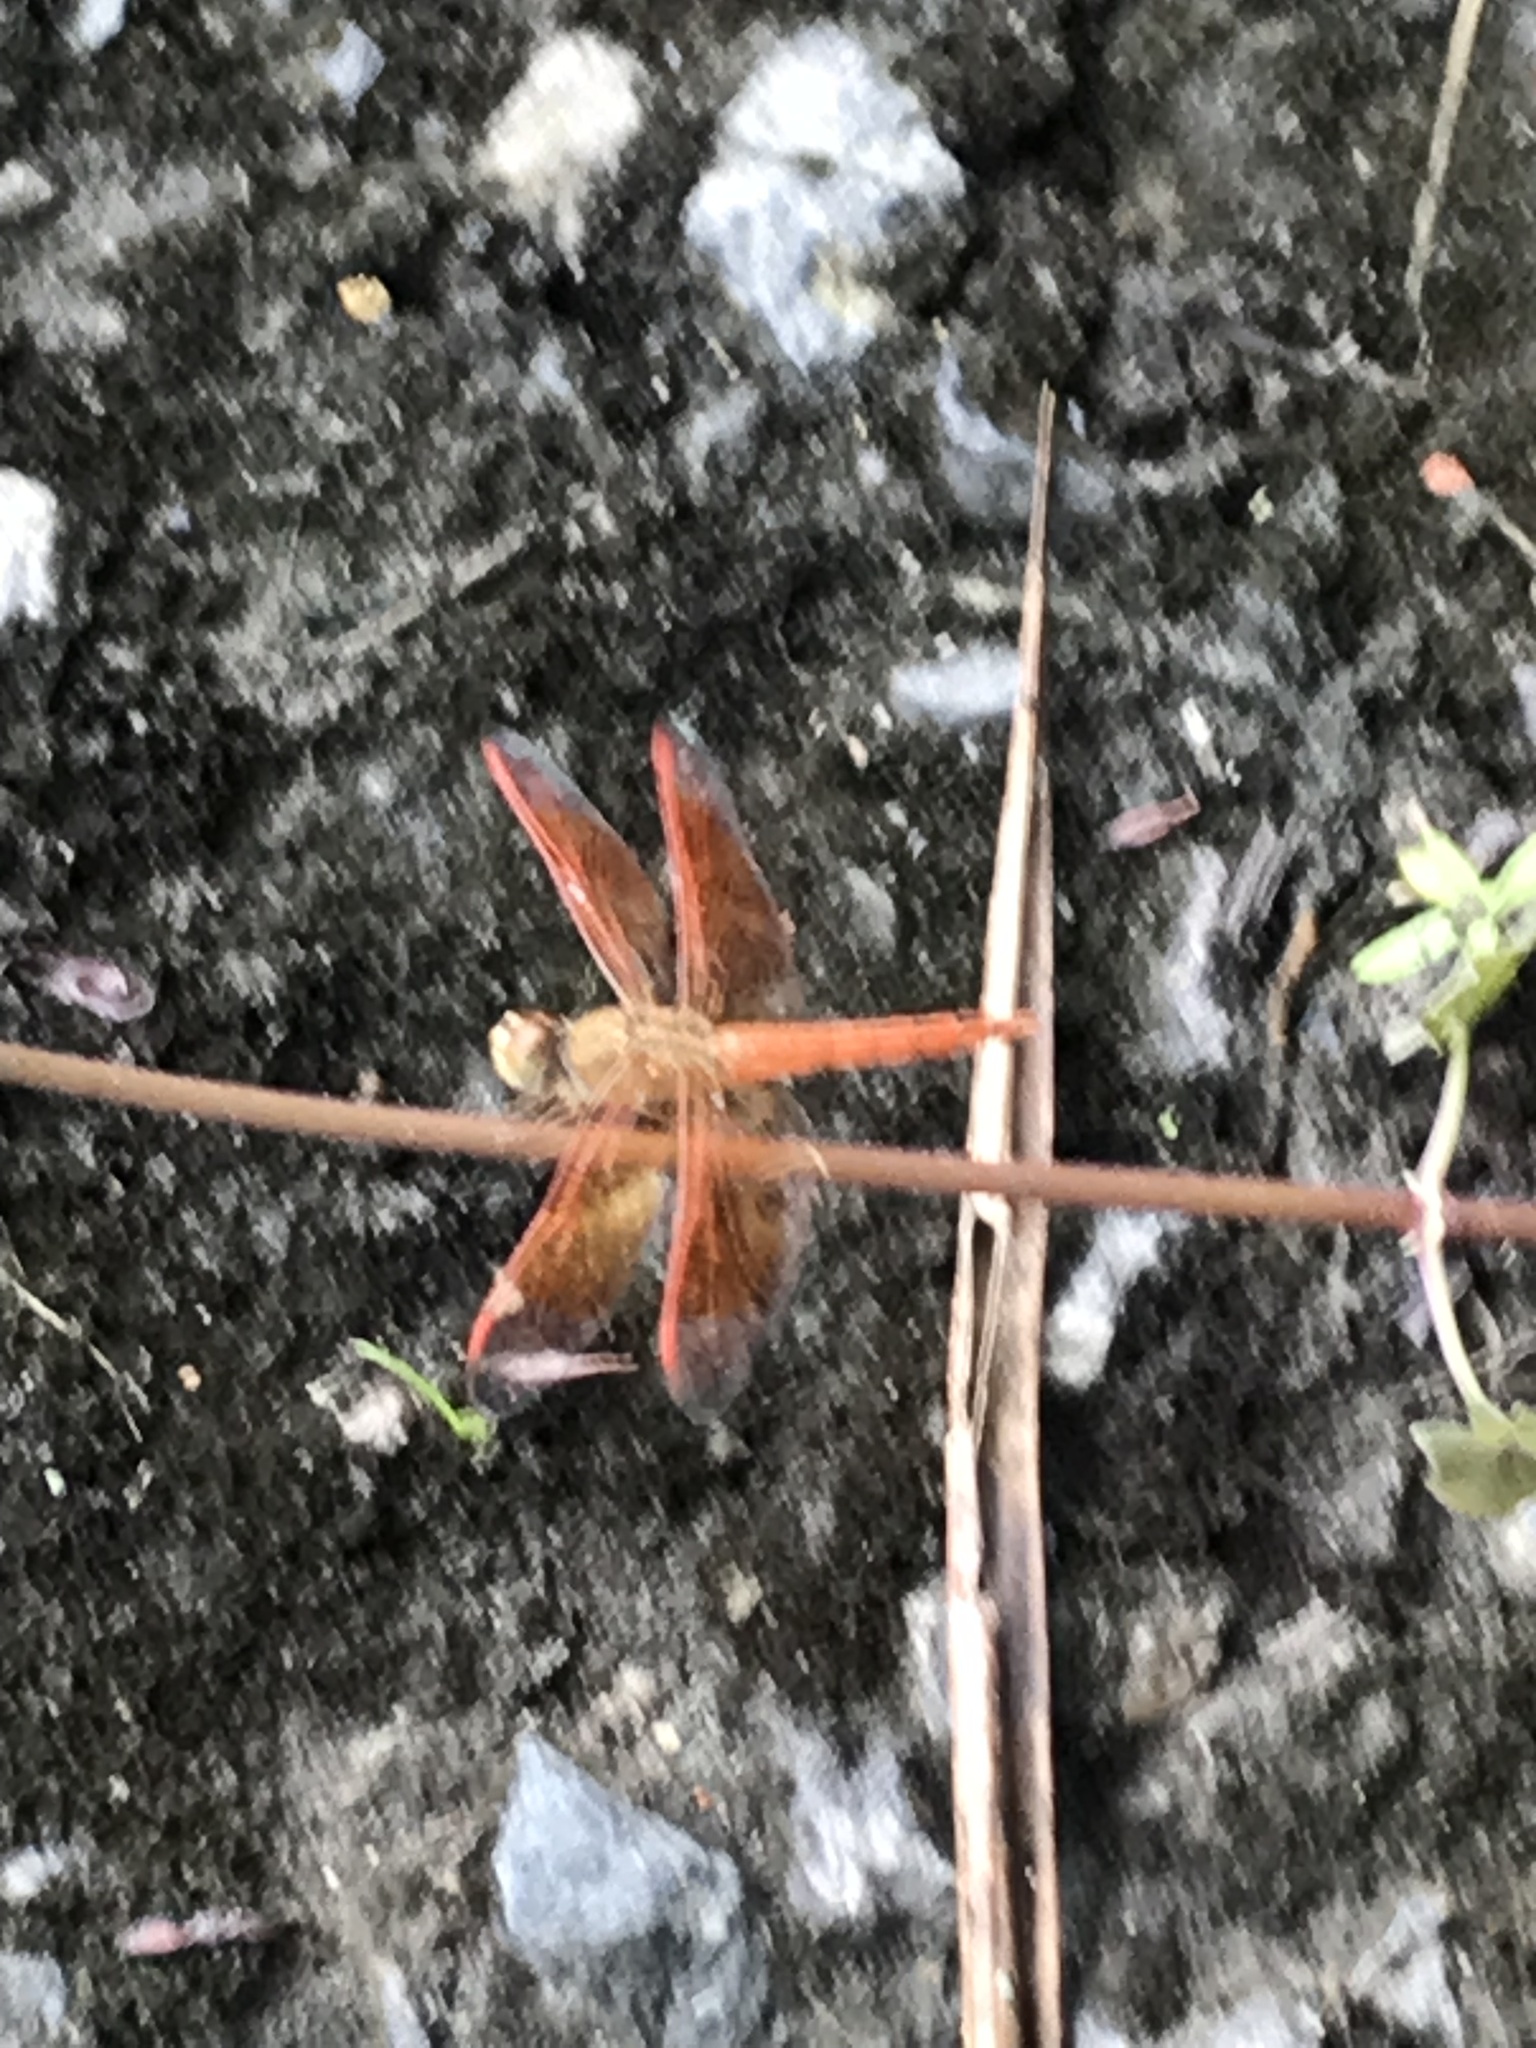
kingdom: Animalia
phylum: Arthropoda
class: Insecta
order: Odonata
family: Libellulidae
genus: Brachythemis
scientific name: Brachythemis contaminata
